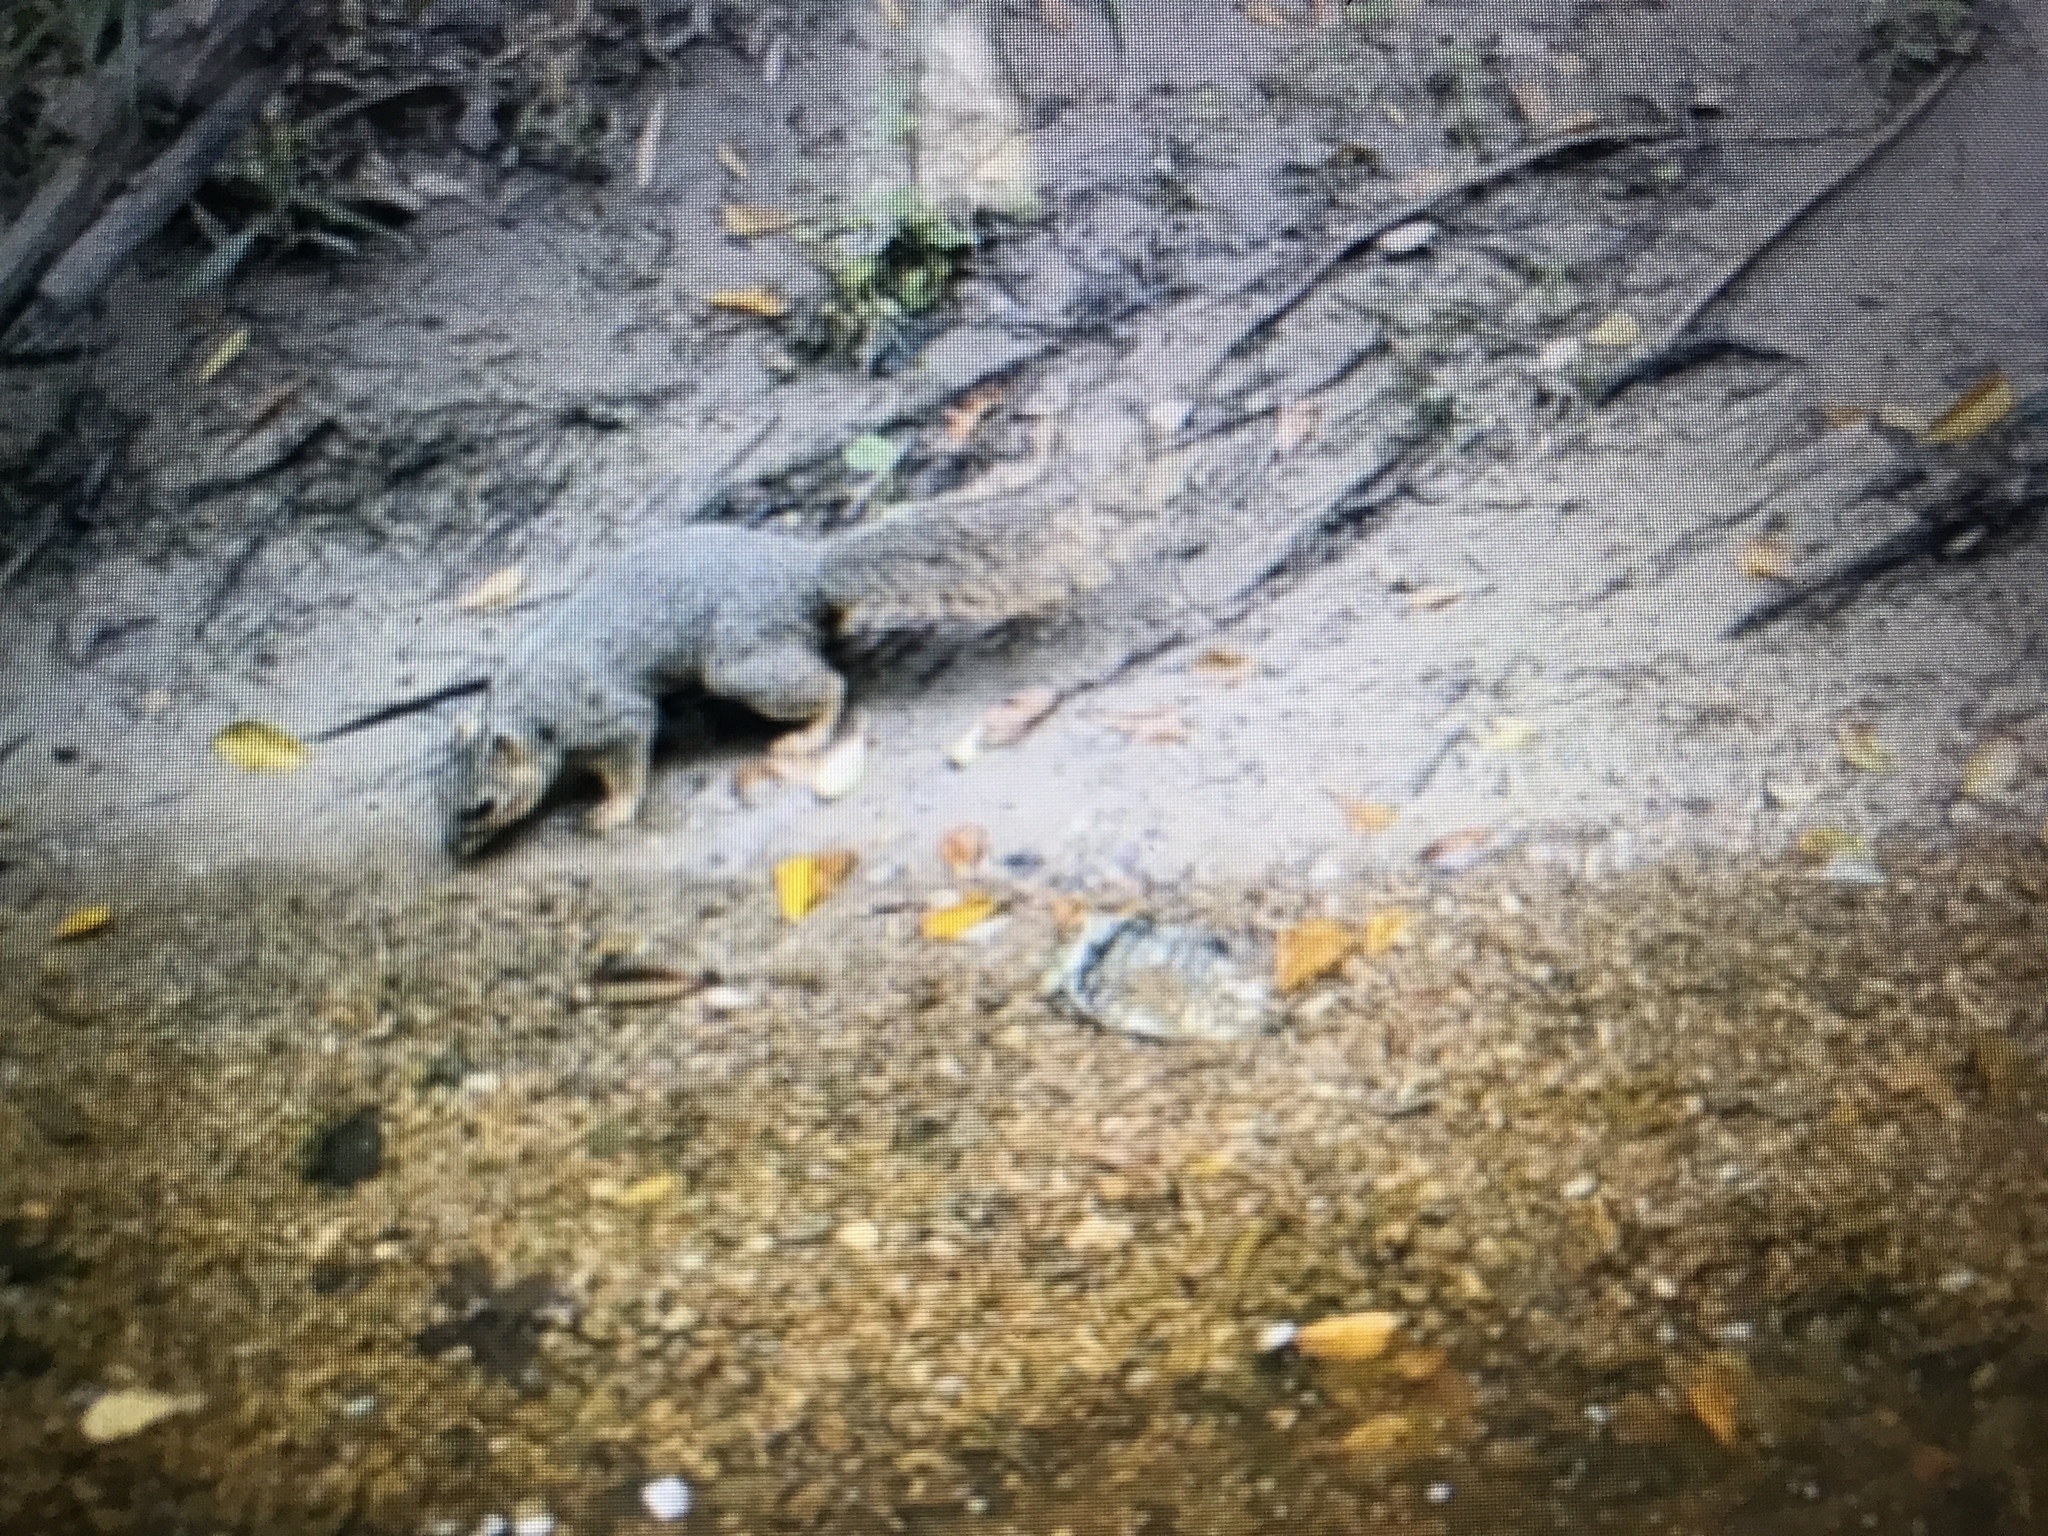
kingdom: Animalia
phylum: Chordata
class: Mammalia
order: Rodentia
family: Sciuridae
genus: Sciurus
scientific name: Sciurus niger
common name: Fox squirrel
